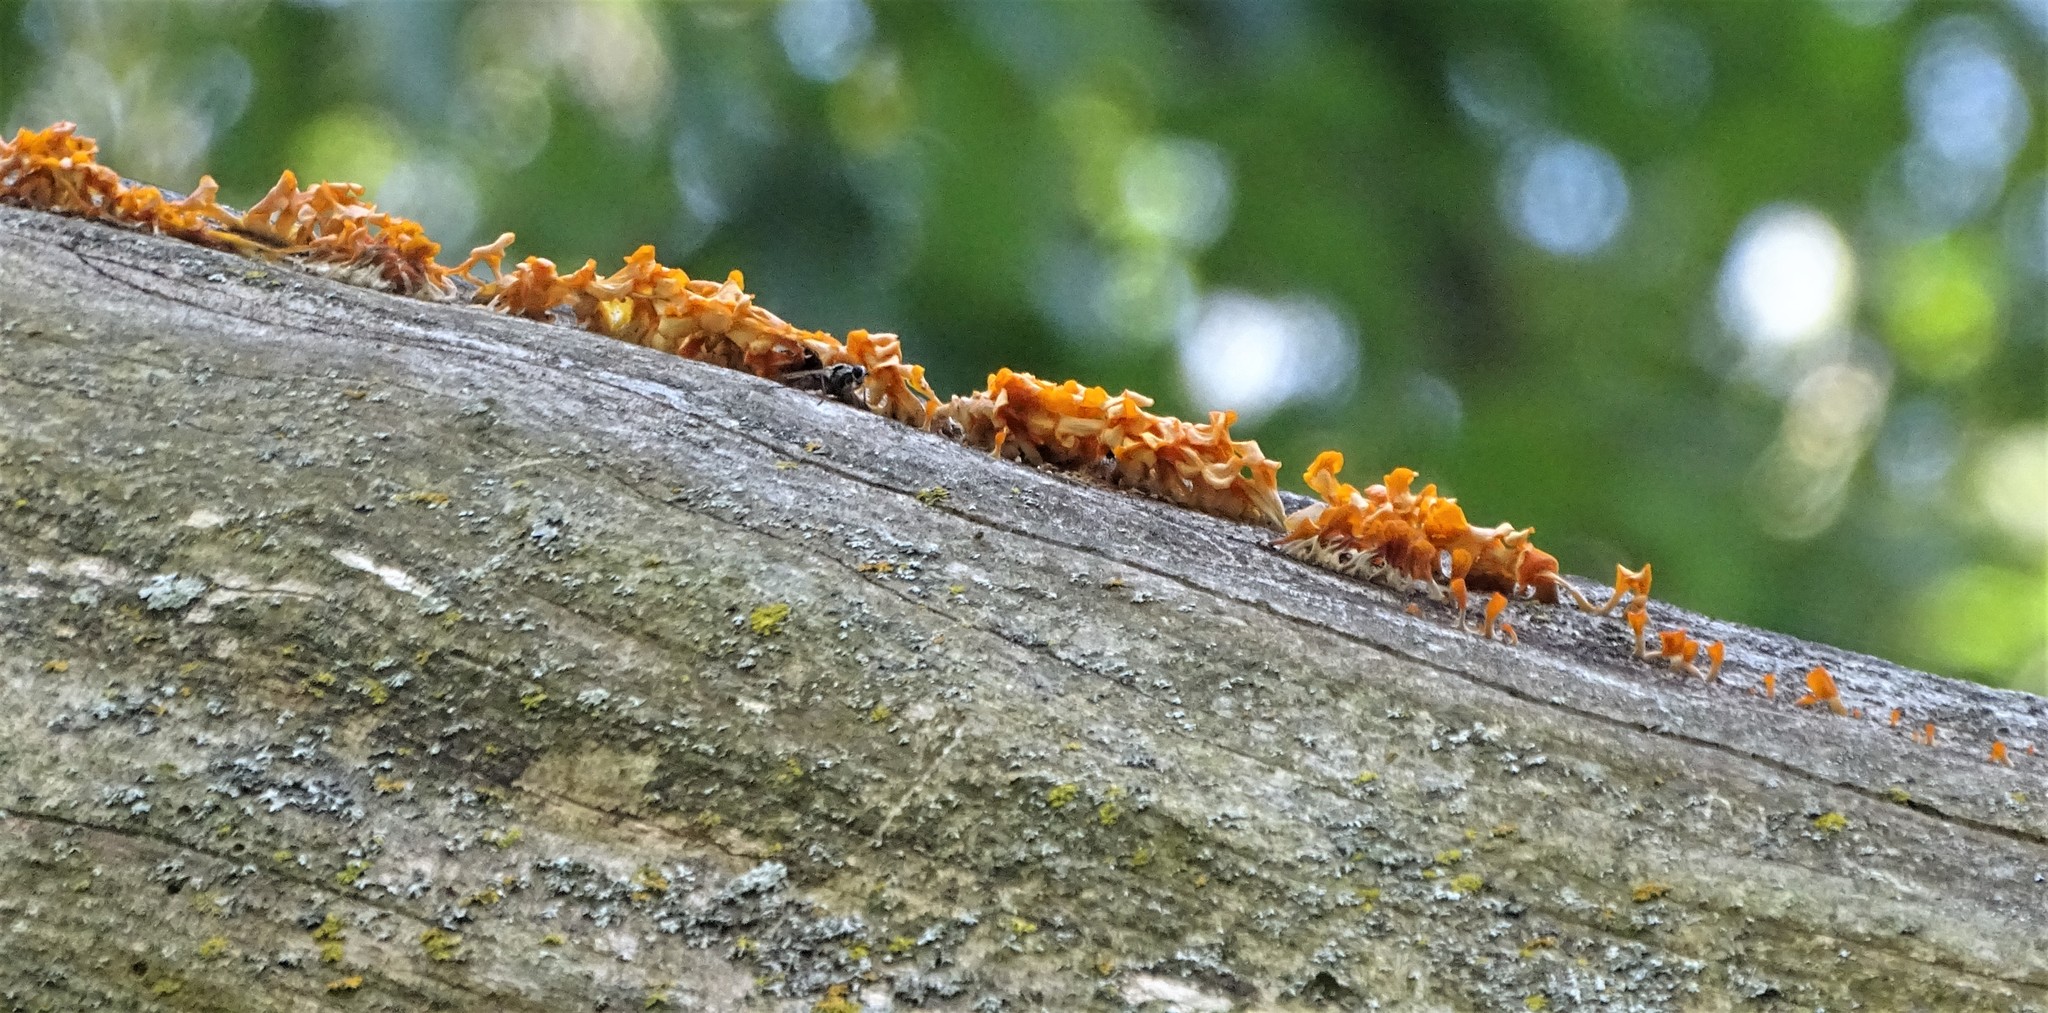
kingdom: Fungi
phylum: Basidiomycota
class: Dacrymycetes
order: Dacrymycetales
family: Dacrymycetaceae
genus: Dacrymyces
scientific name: Dacrymyces spathularius
